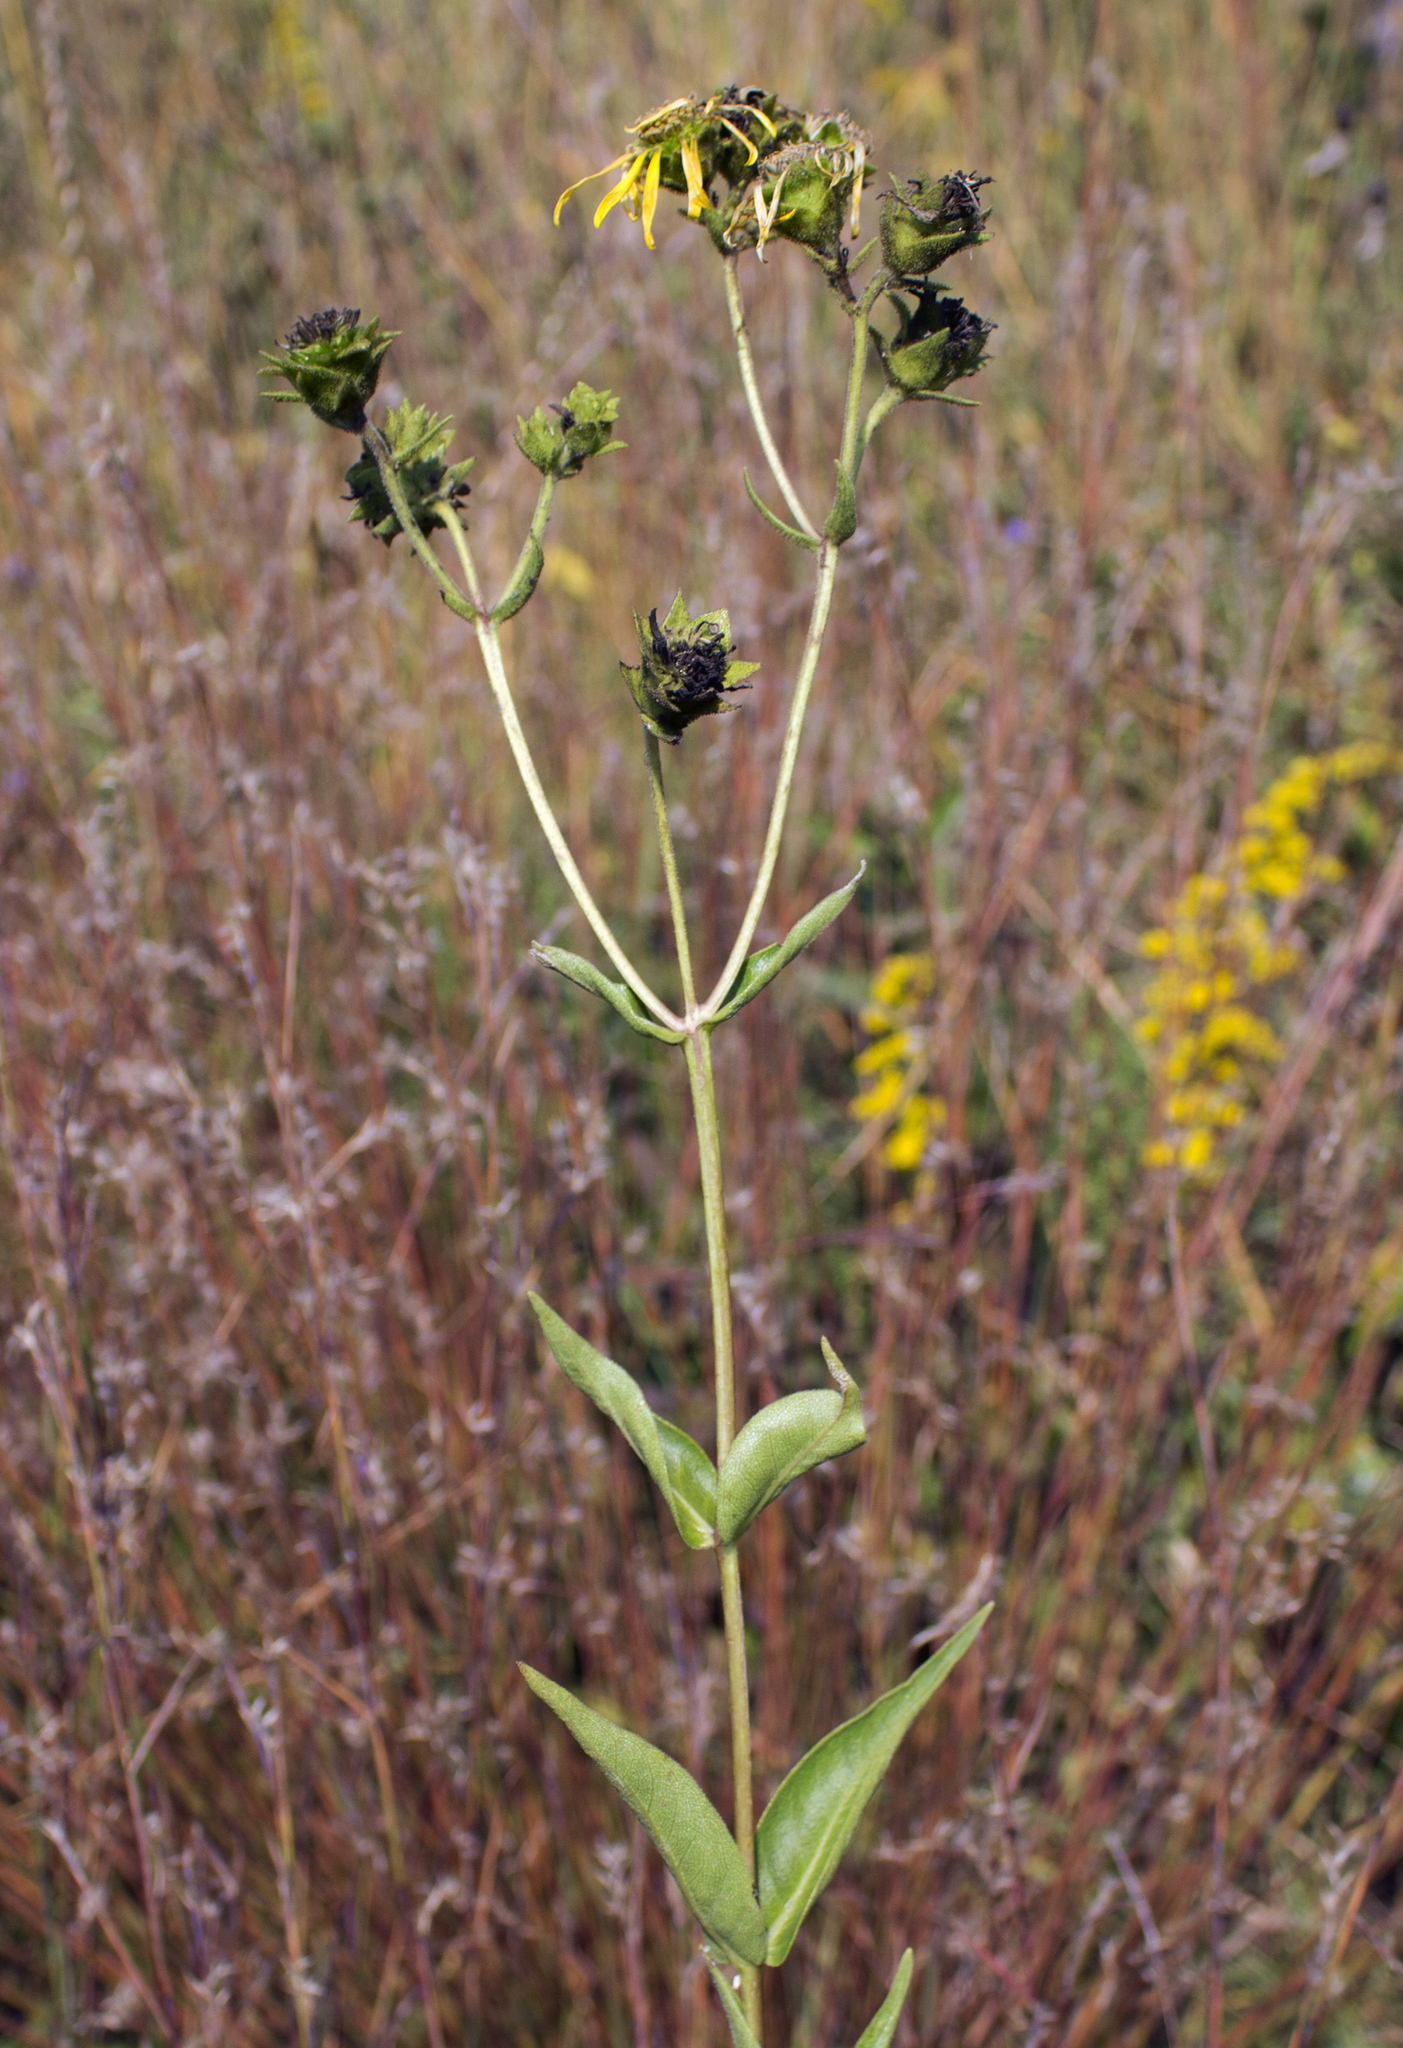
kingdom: Plantae
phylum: Tracheophyta
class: Magnoliopsida
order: Asterales
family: Asteraceae
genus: Silphium
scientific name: Silphium integrifolium
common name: Whole-leaf rosinweed
